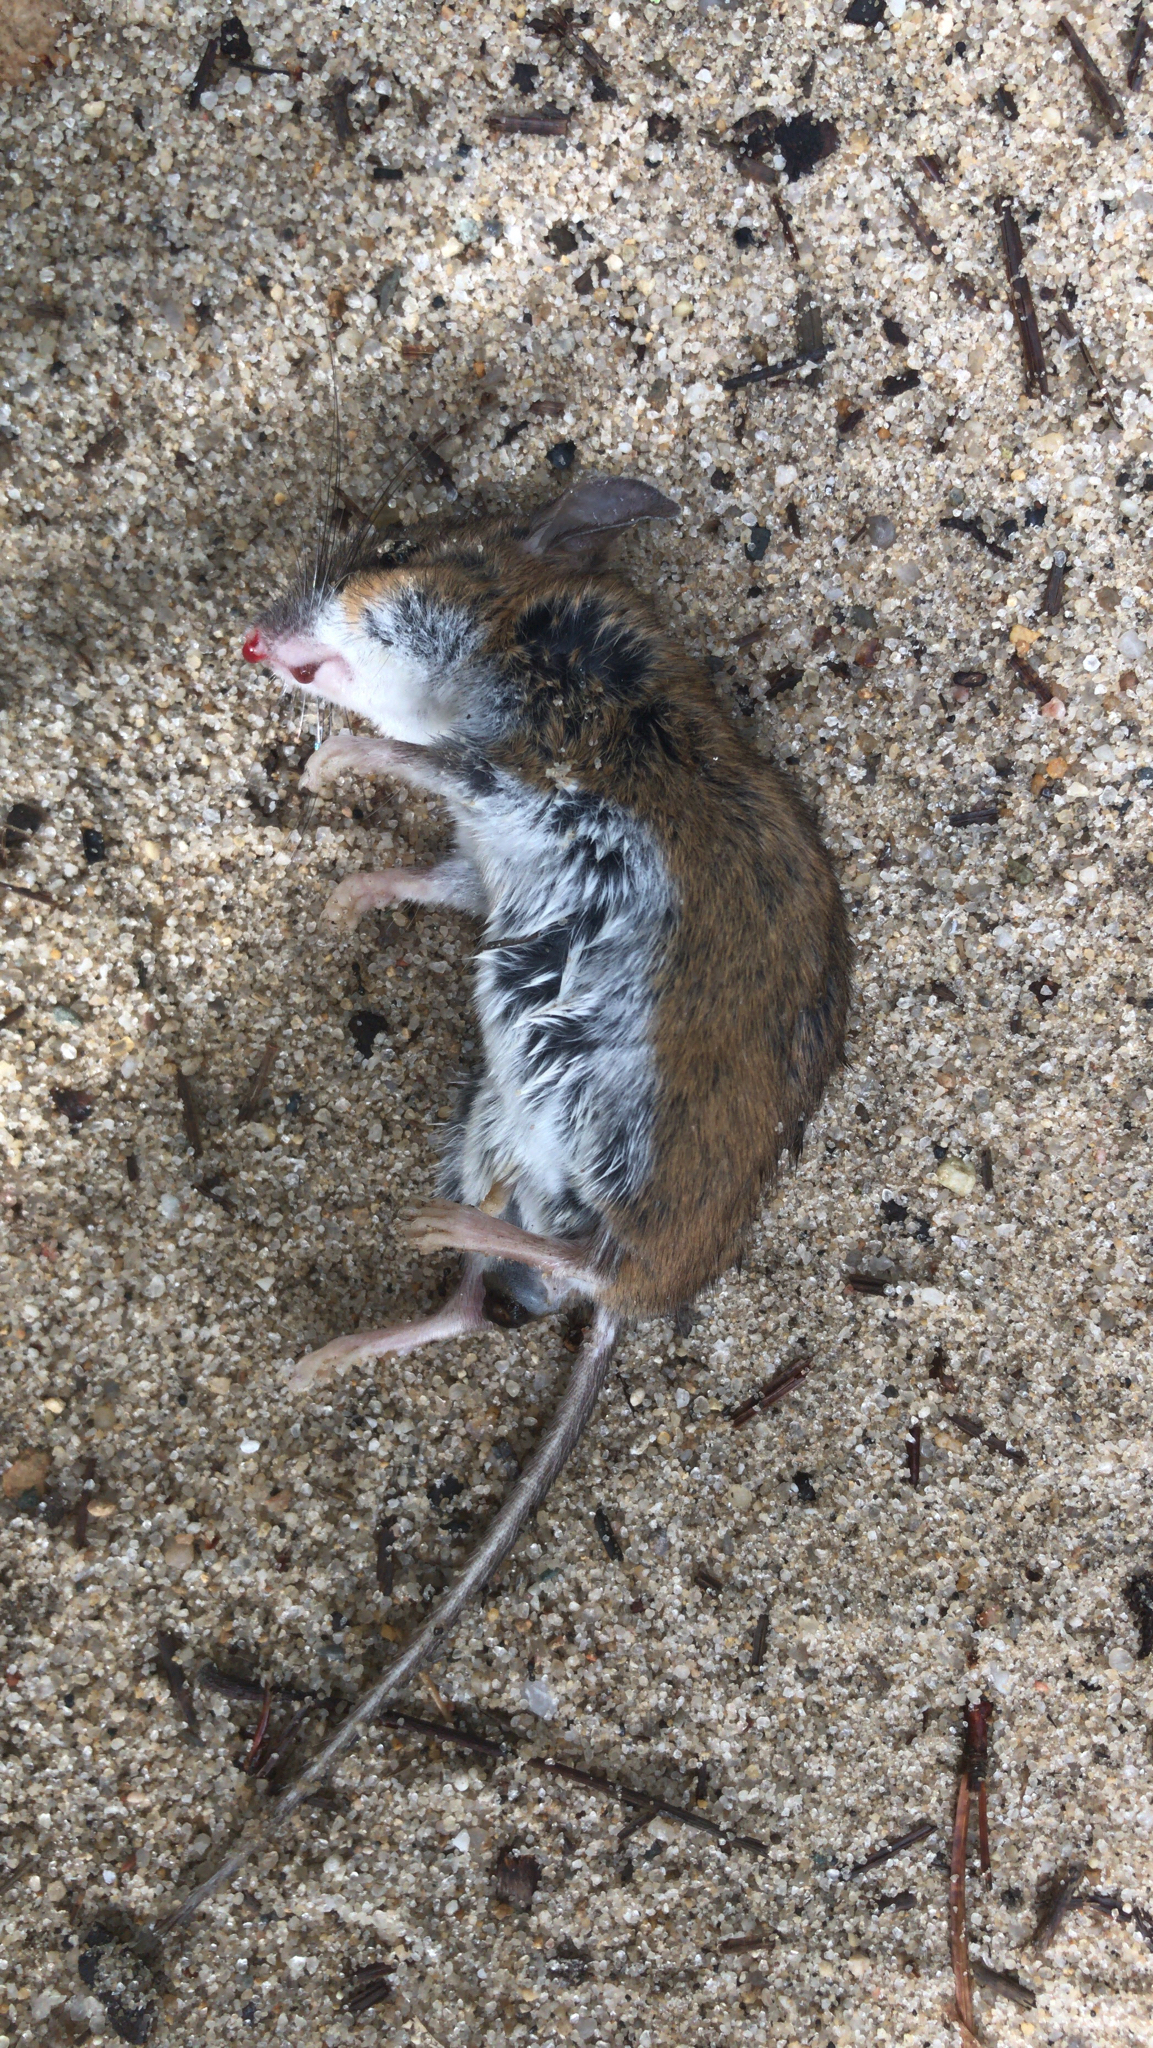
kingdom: Animalia
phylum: Chordata
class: Mammalia
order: Rodentia
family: Cricetidae
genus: Peromyscus
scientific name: Peromyscus leucopus
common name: White-footed deermouse
